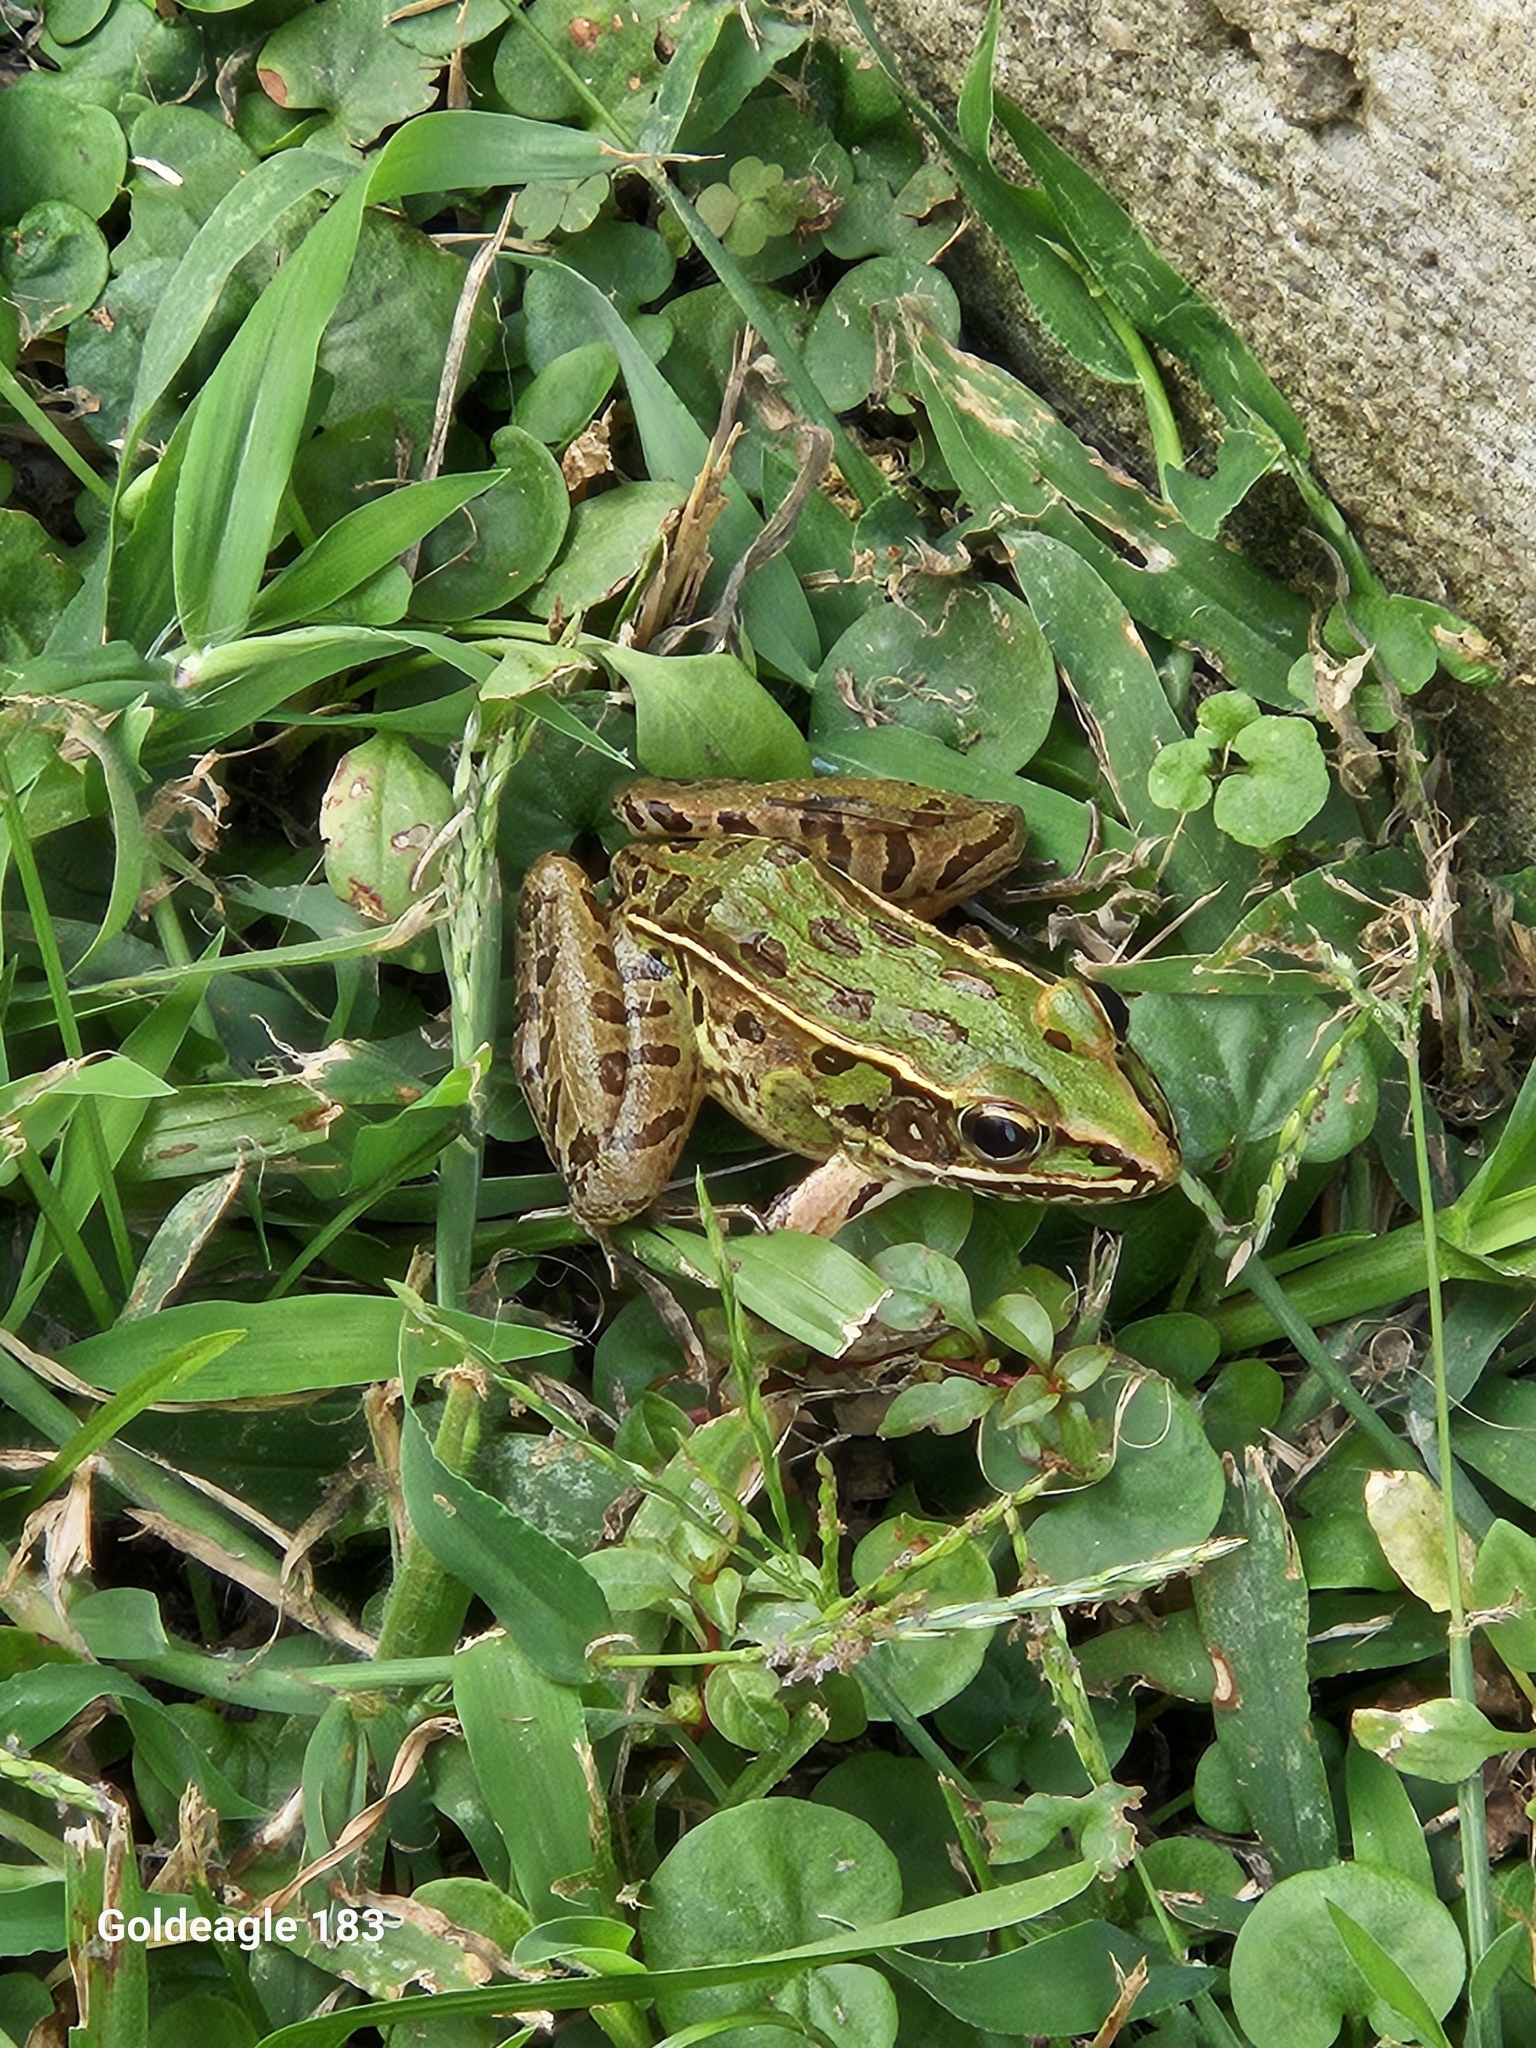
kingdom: Animalia
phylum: Chordata
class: Amphibia
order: Anura
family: Ranidae
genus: Lithobates
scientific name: Lithobates sphenocephalus
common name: Southern leopard frog
